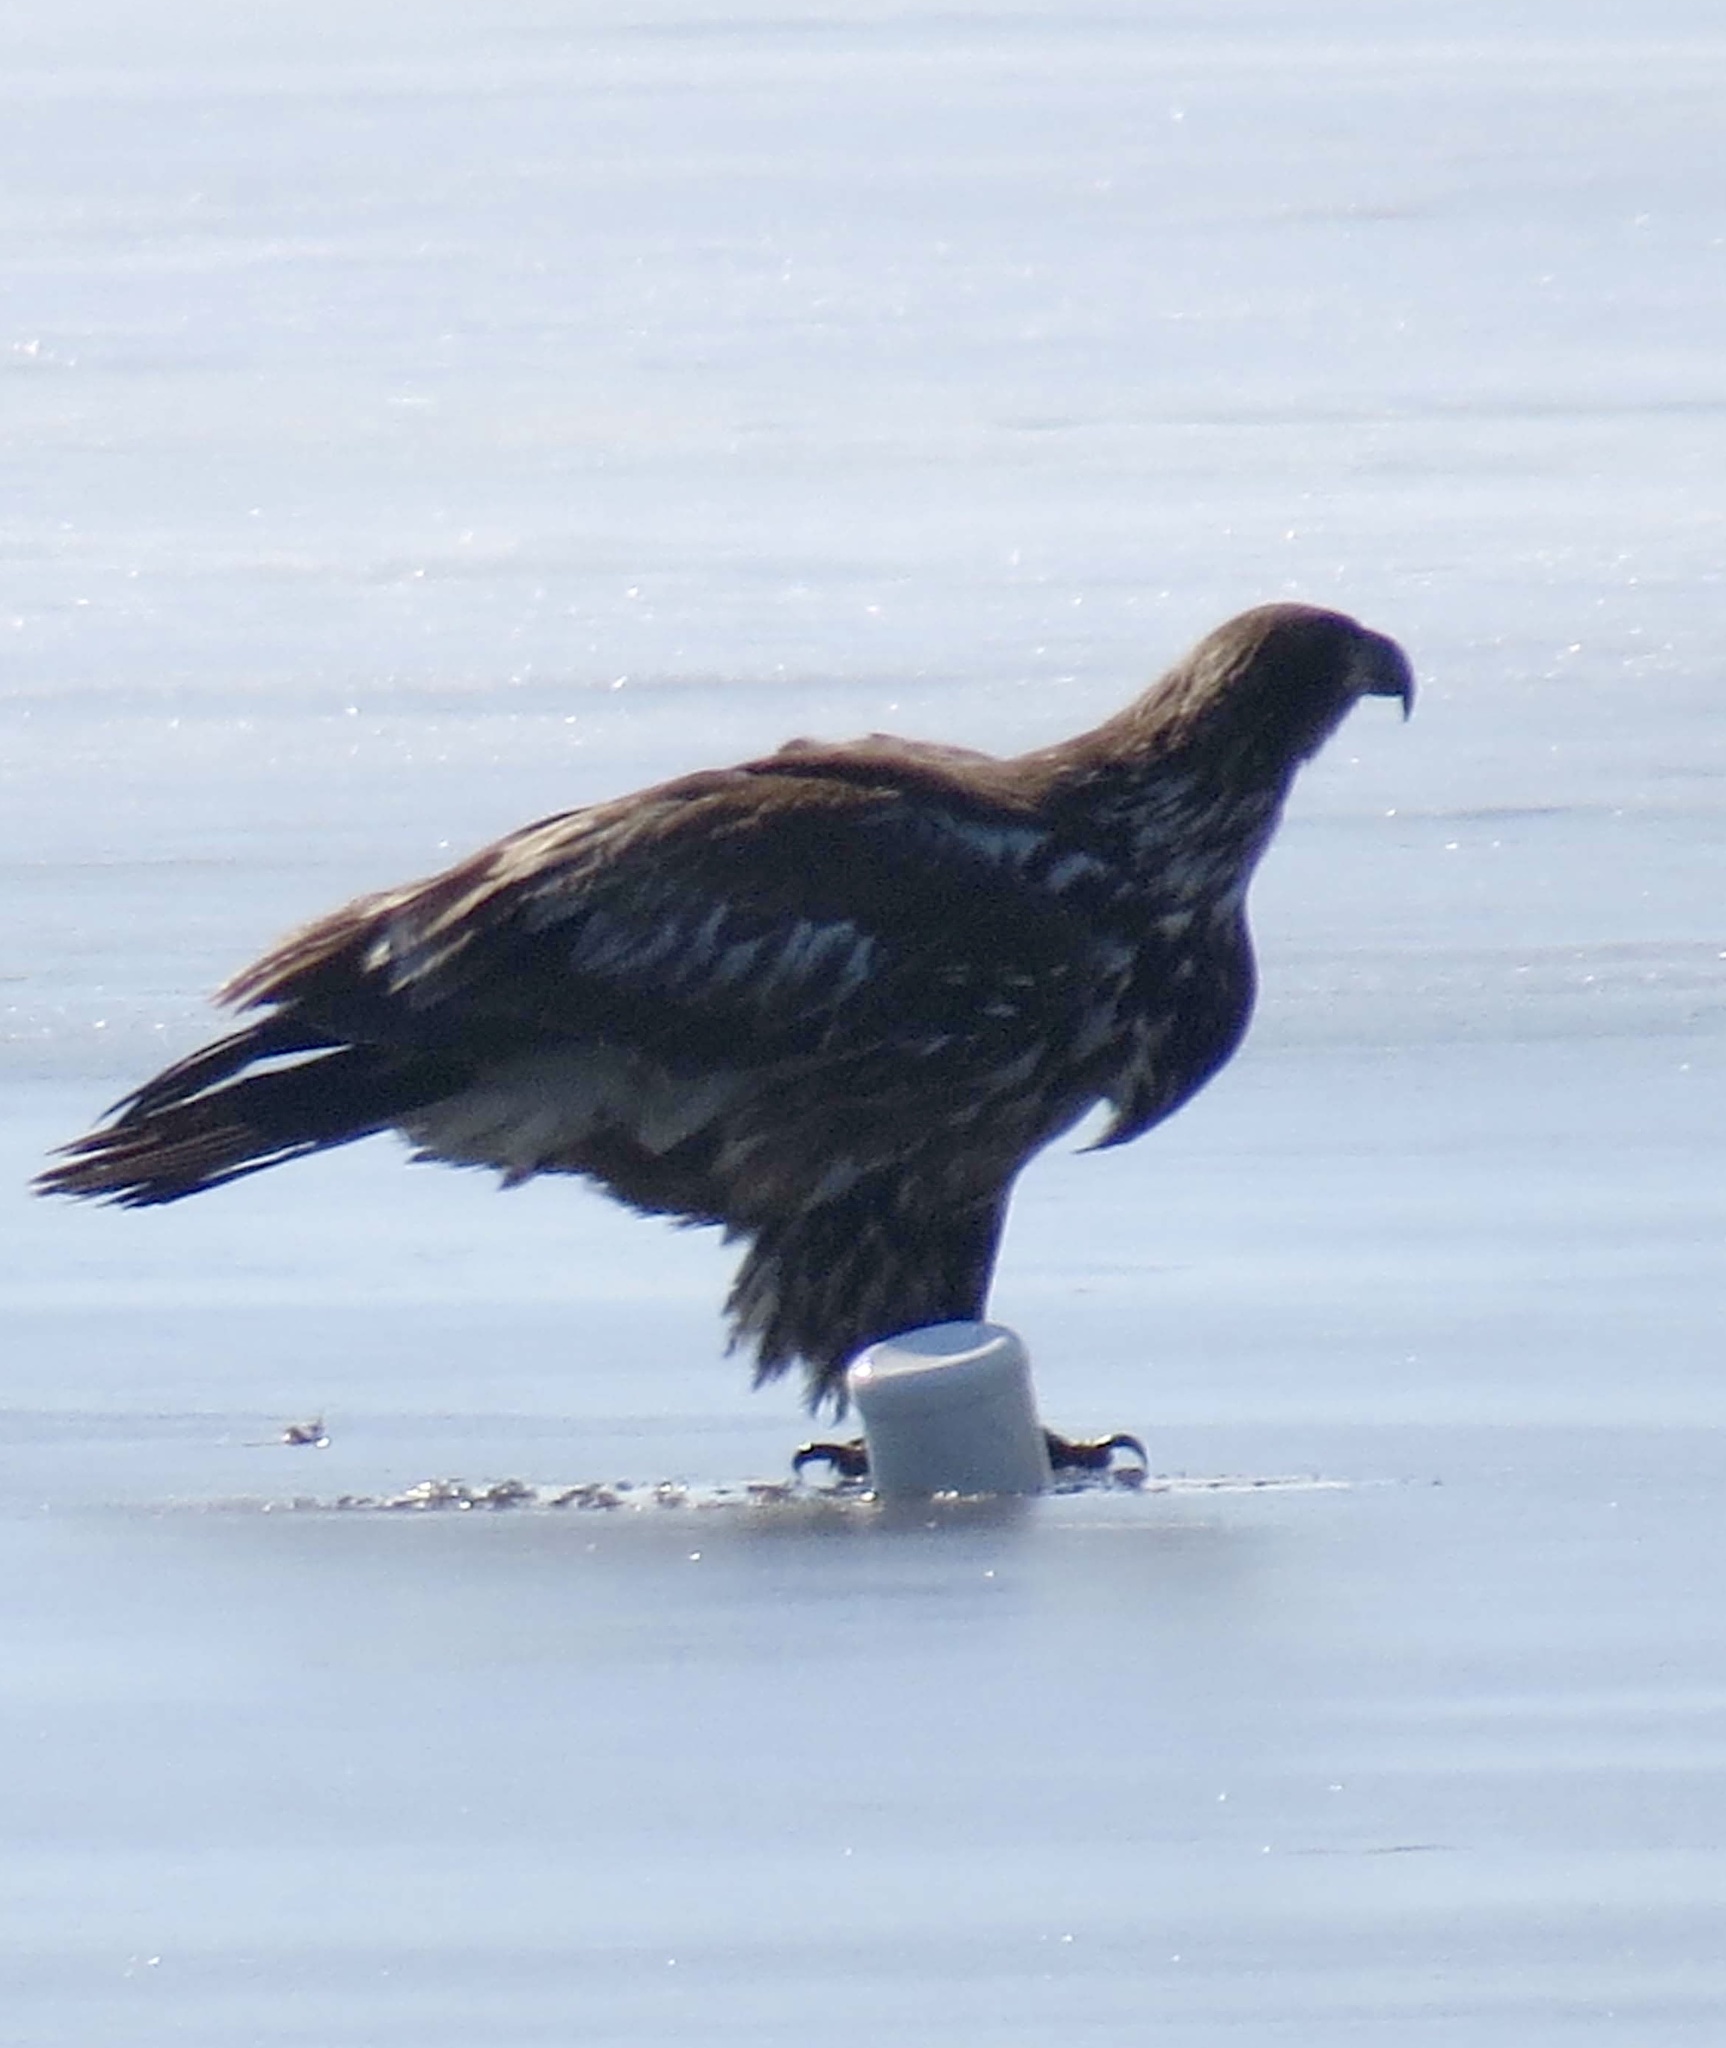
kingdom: Animalia
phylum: Chordata
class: Aves
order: Accipitriformes
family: Accipitridae
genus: Haliaeetus
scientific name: Haliaeetus leucocephalus
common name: Bald eagle
